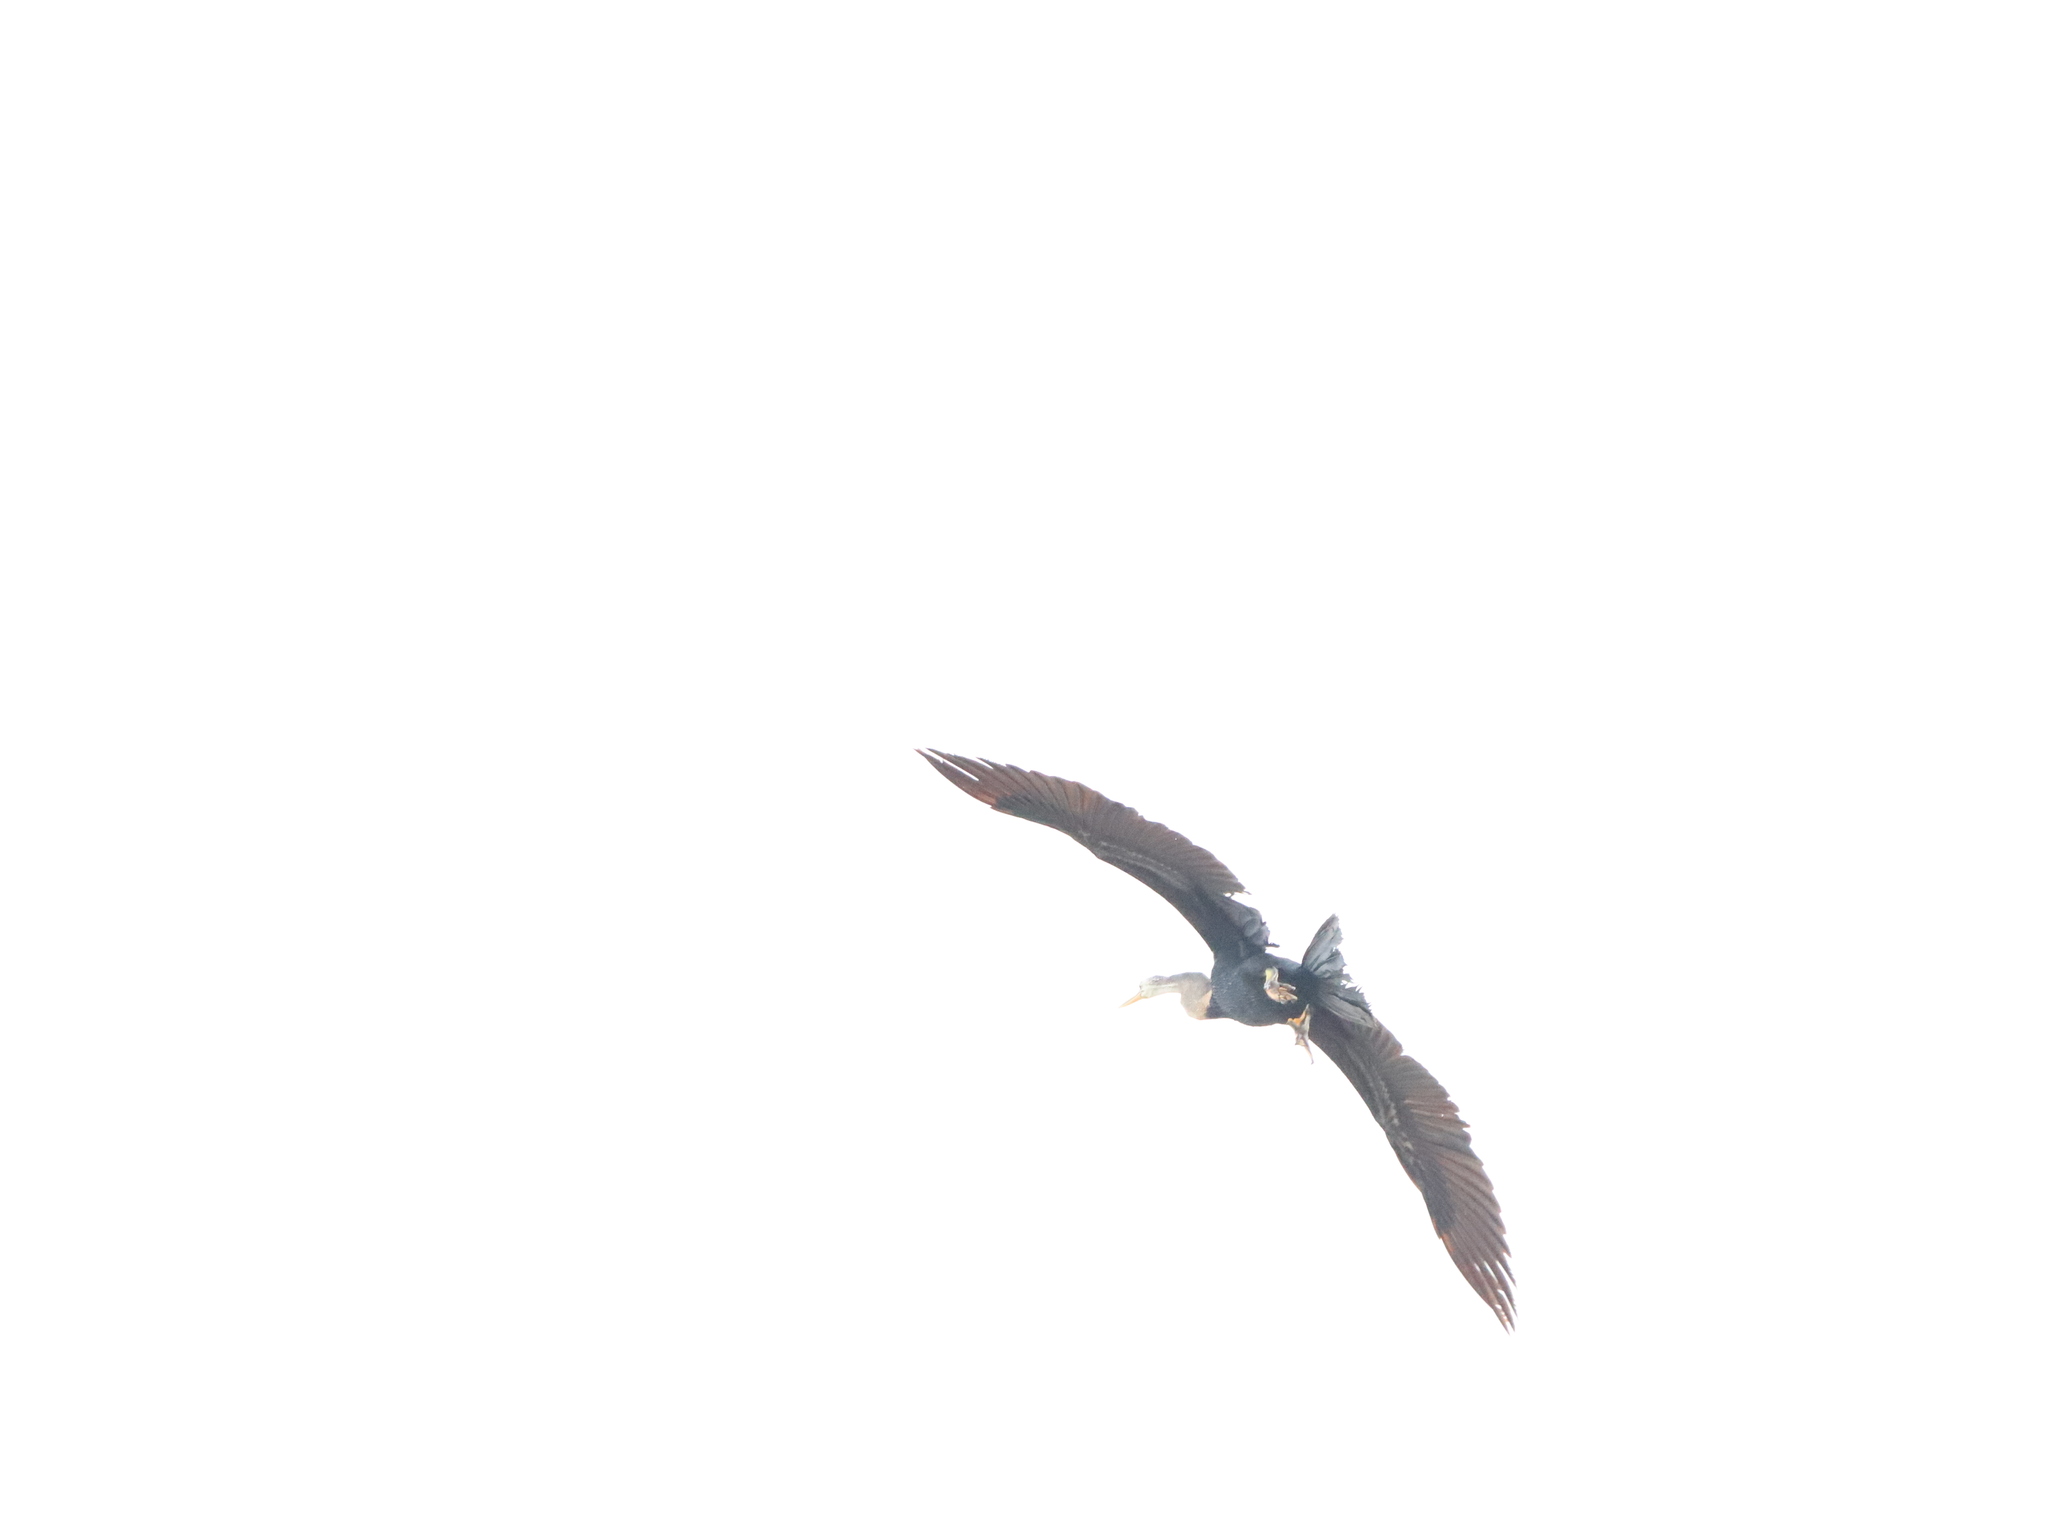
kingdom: Animalia
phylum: Chordata
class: Aves
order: Suliformes
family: Anhingidae
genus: Anhinga
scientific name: Anhinga melanogaster
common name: Oriental darter
